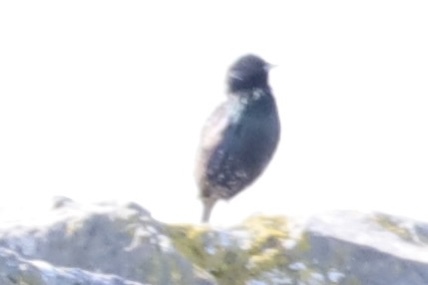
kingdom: Animalia
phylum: Chordata
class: Aves
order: Passeriformes
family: Sturnidae
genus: Sturnus
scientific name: Sturnus vulgaris
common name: Common starling
